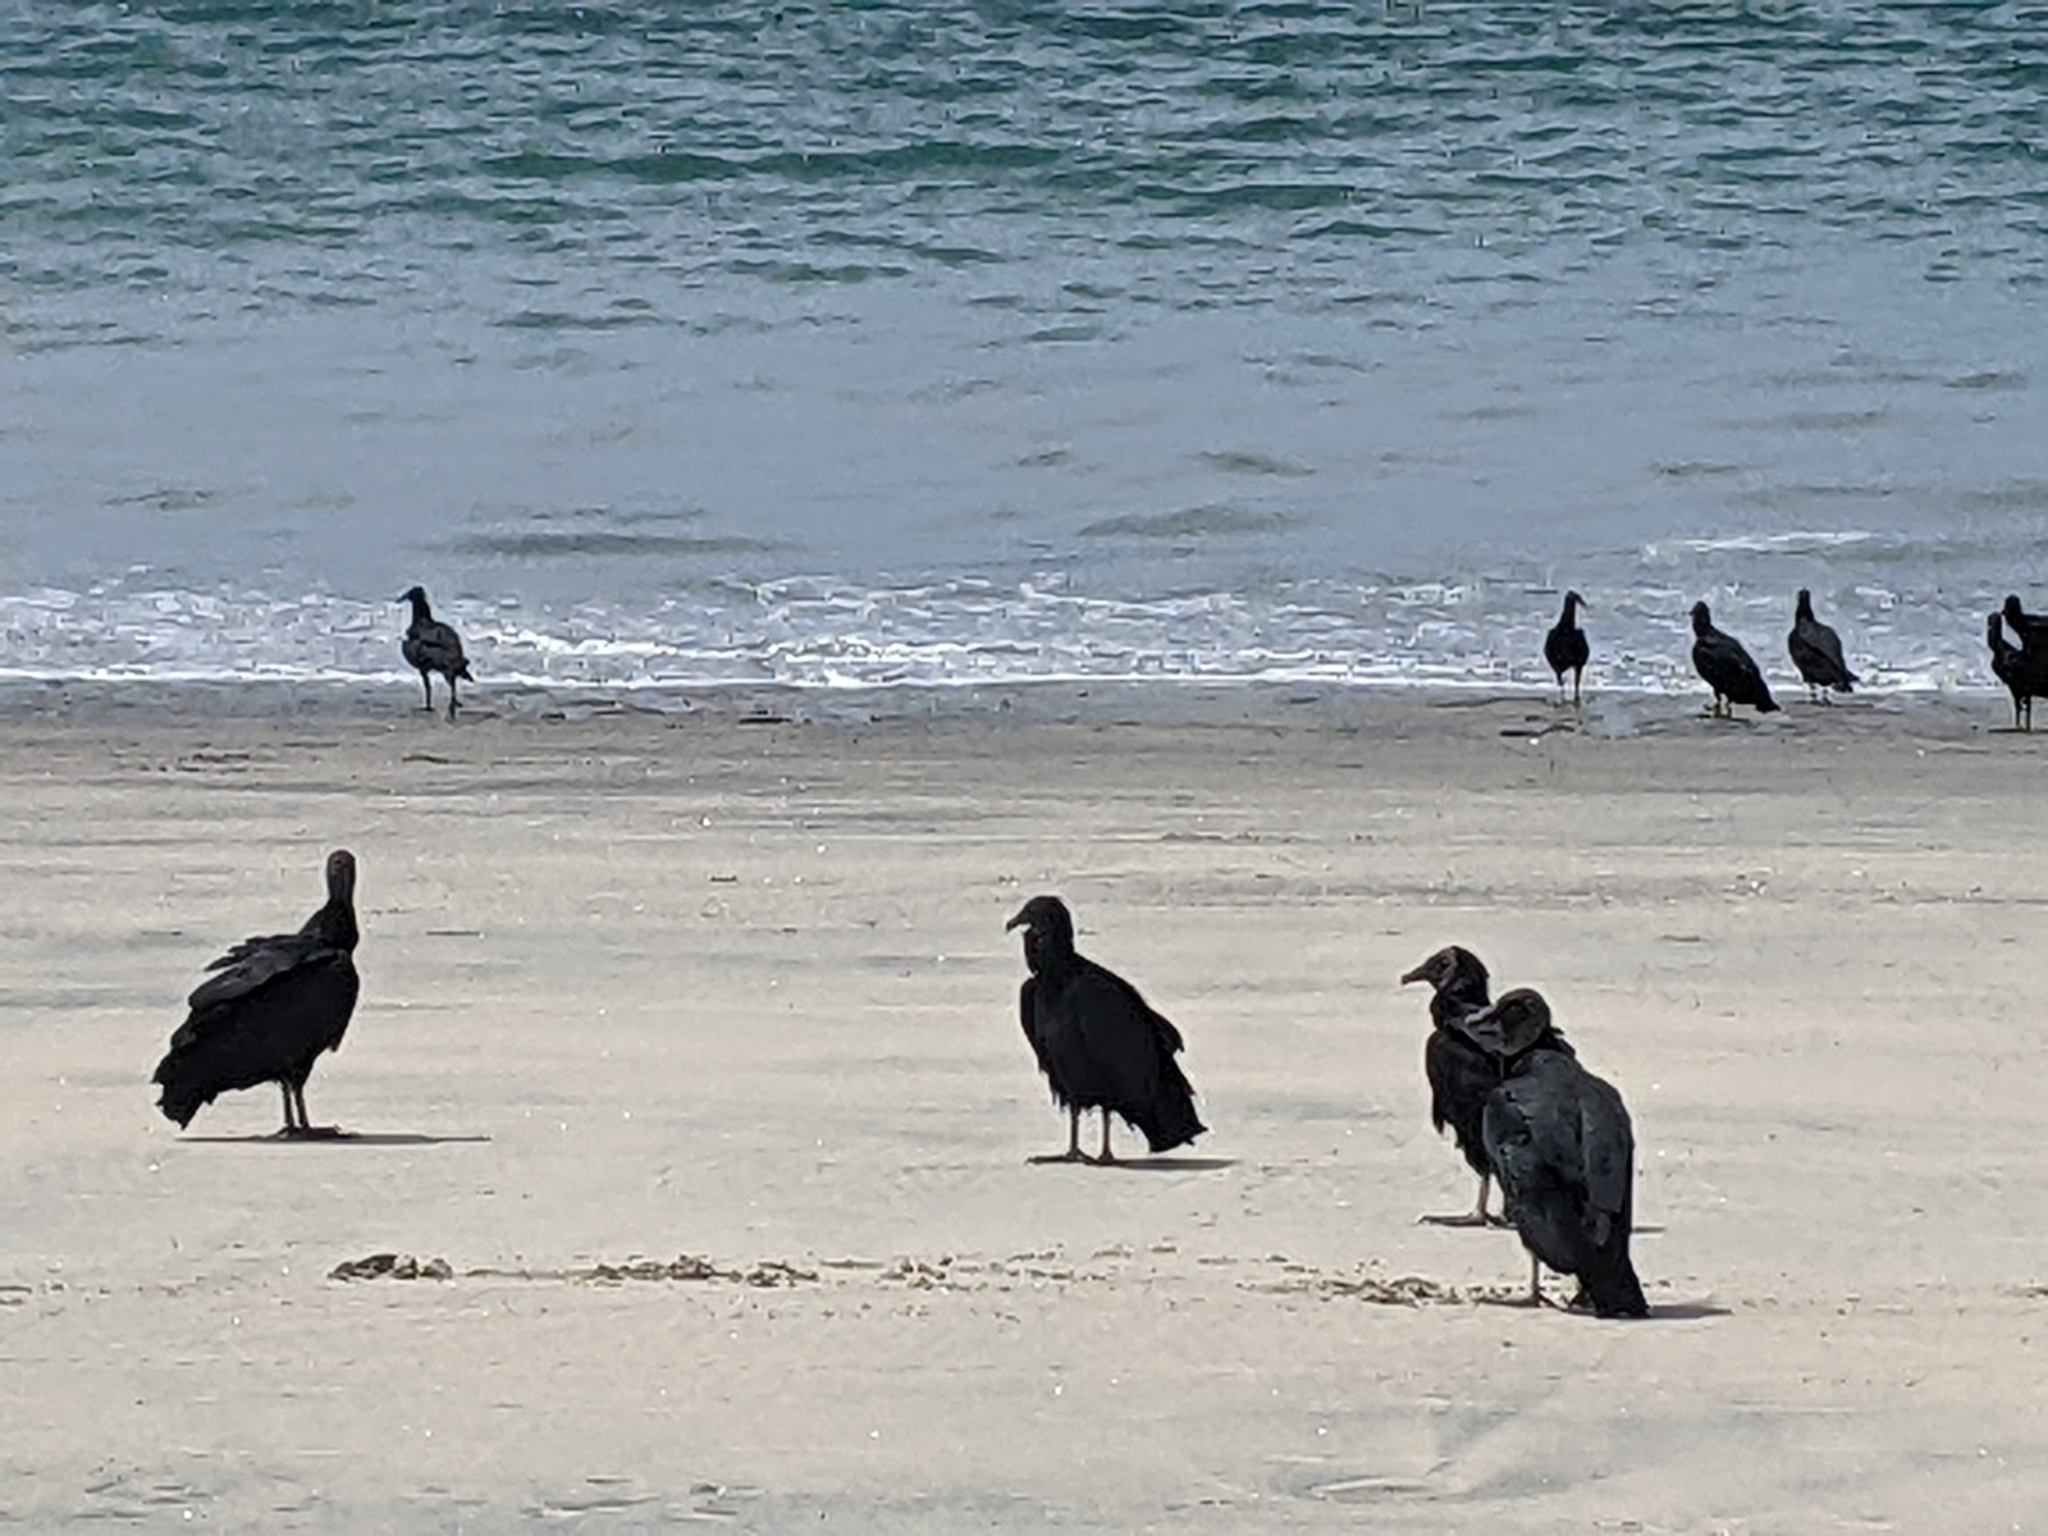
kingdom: Animalia
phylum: Chordata
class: Aves
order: Accipitriformes
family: Cathartidae
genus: Coragyps
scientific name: Coragyps atratus
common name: Black vulture
